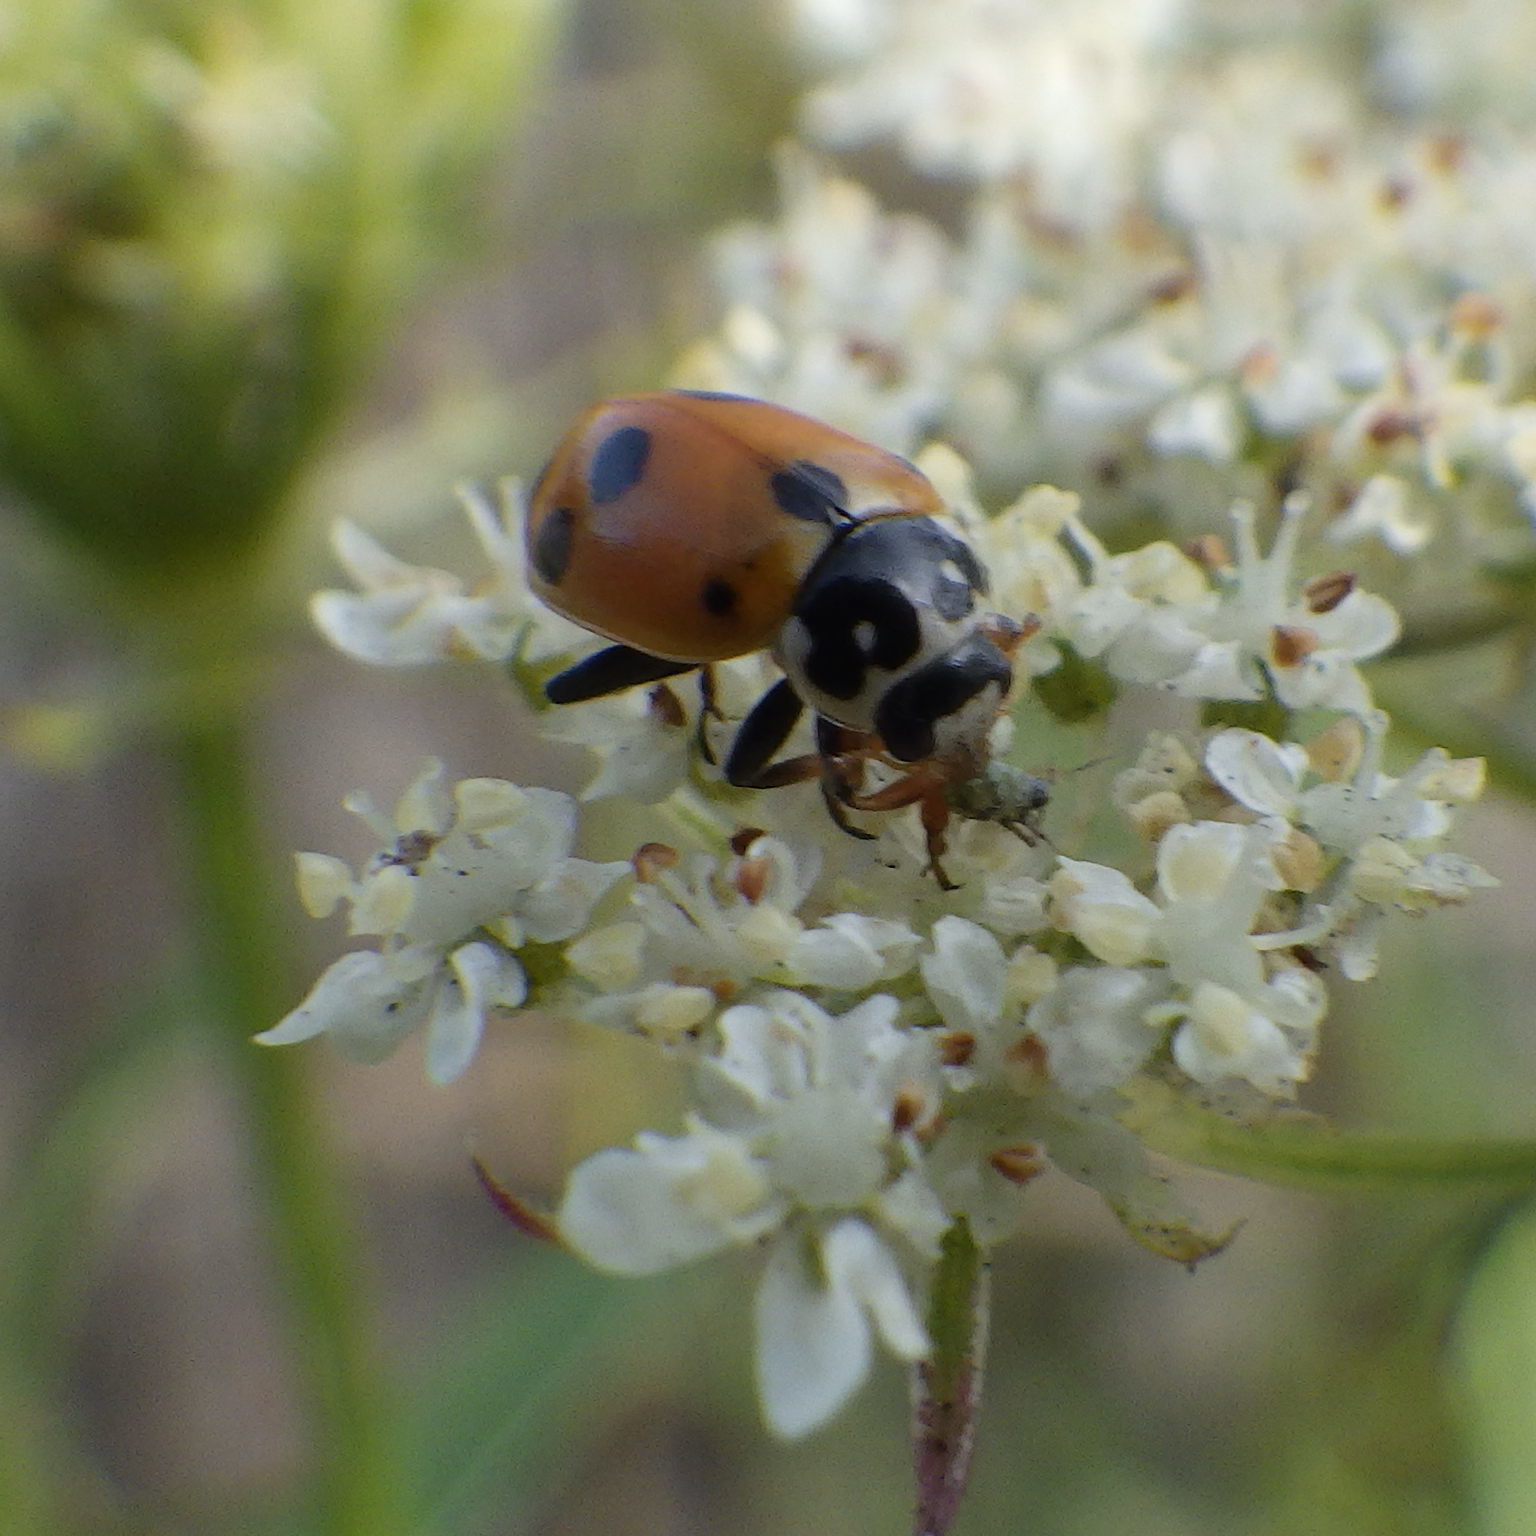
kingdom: Animalia
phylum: Arthropoda
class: Insecta
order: Coleoptera
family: Coccinellidae
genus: Hippodamia
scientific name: Hippodamia variegata
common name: Ladybird beetle
